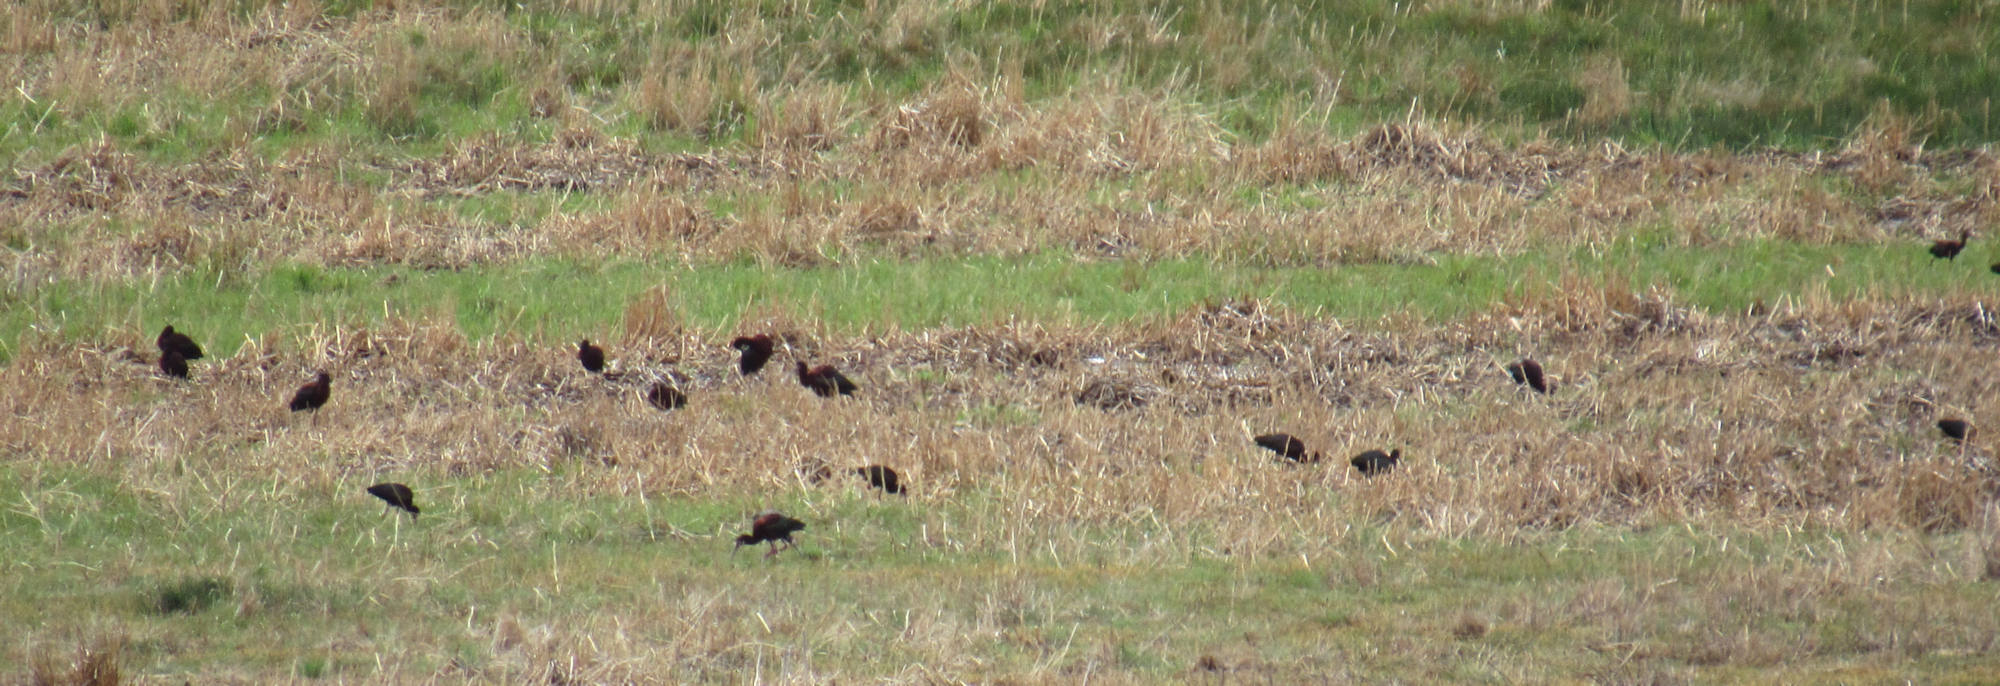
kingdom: Animalia
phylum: Chordata
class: Aves
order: Pelecaniformes
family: Threskiornithidae
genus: Plegadis
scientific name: Plegadis chihi
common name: White-faced ibis
